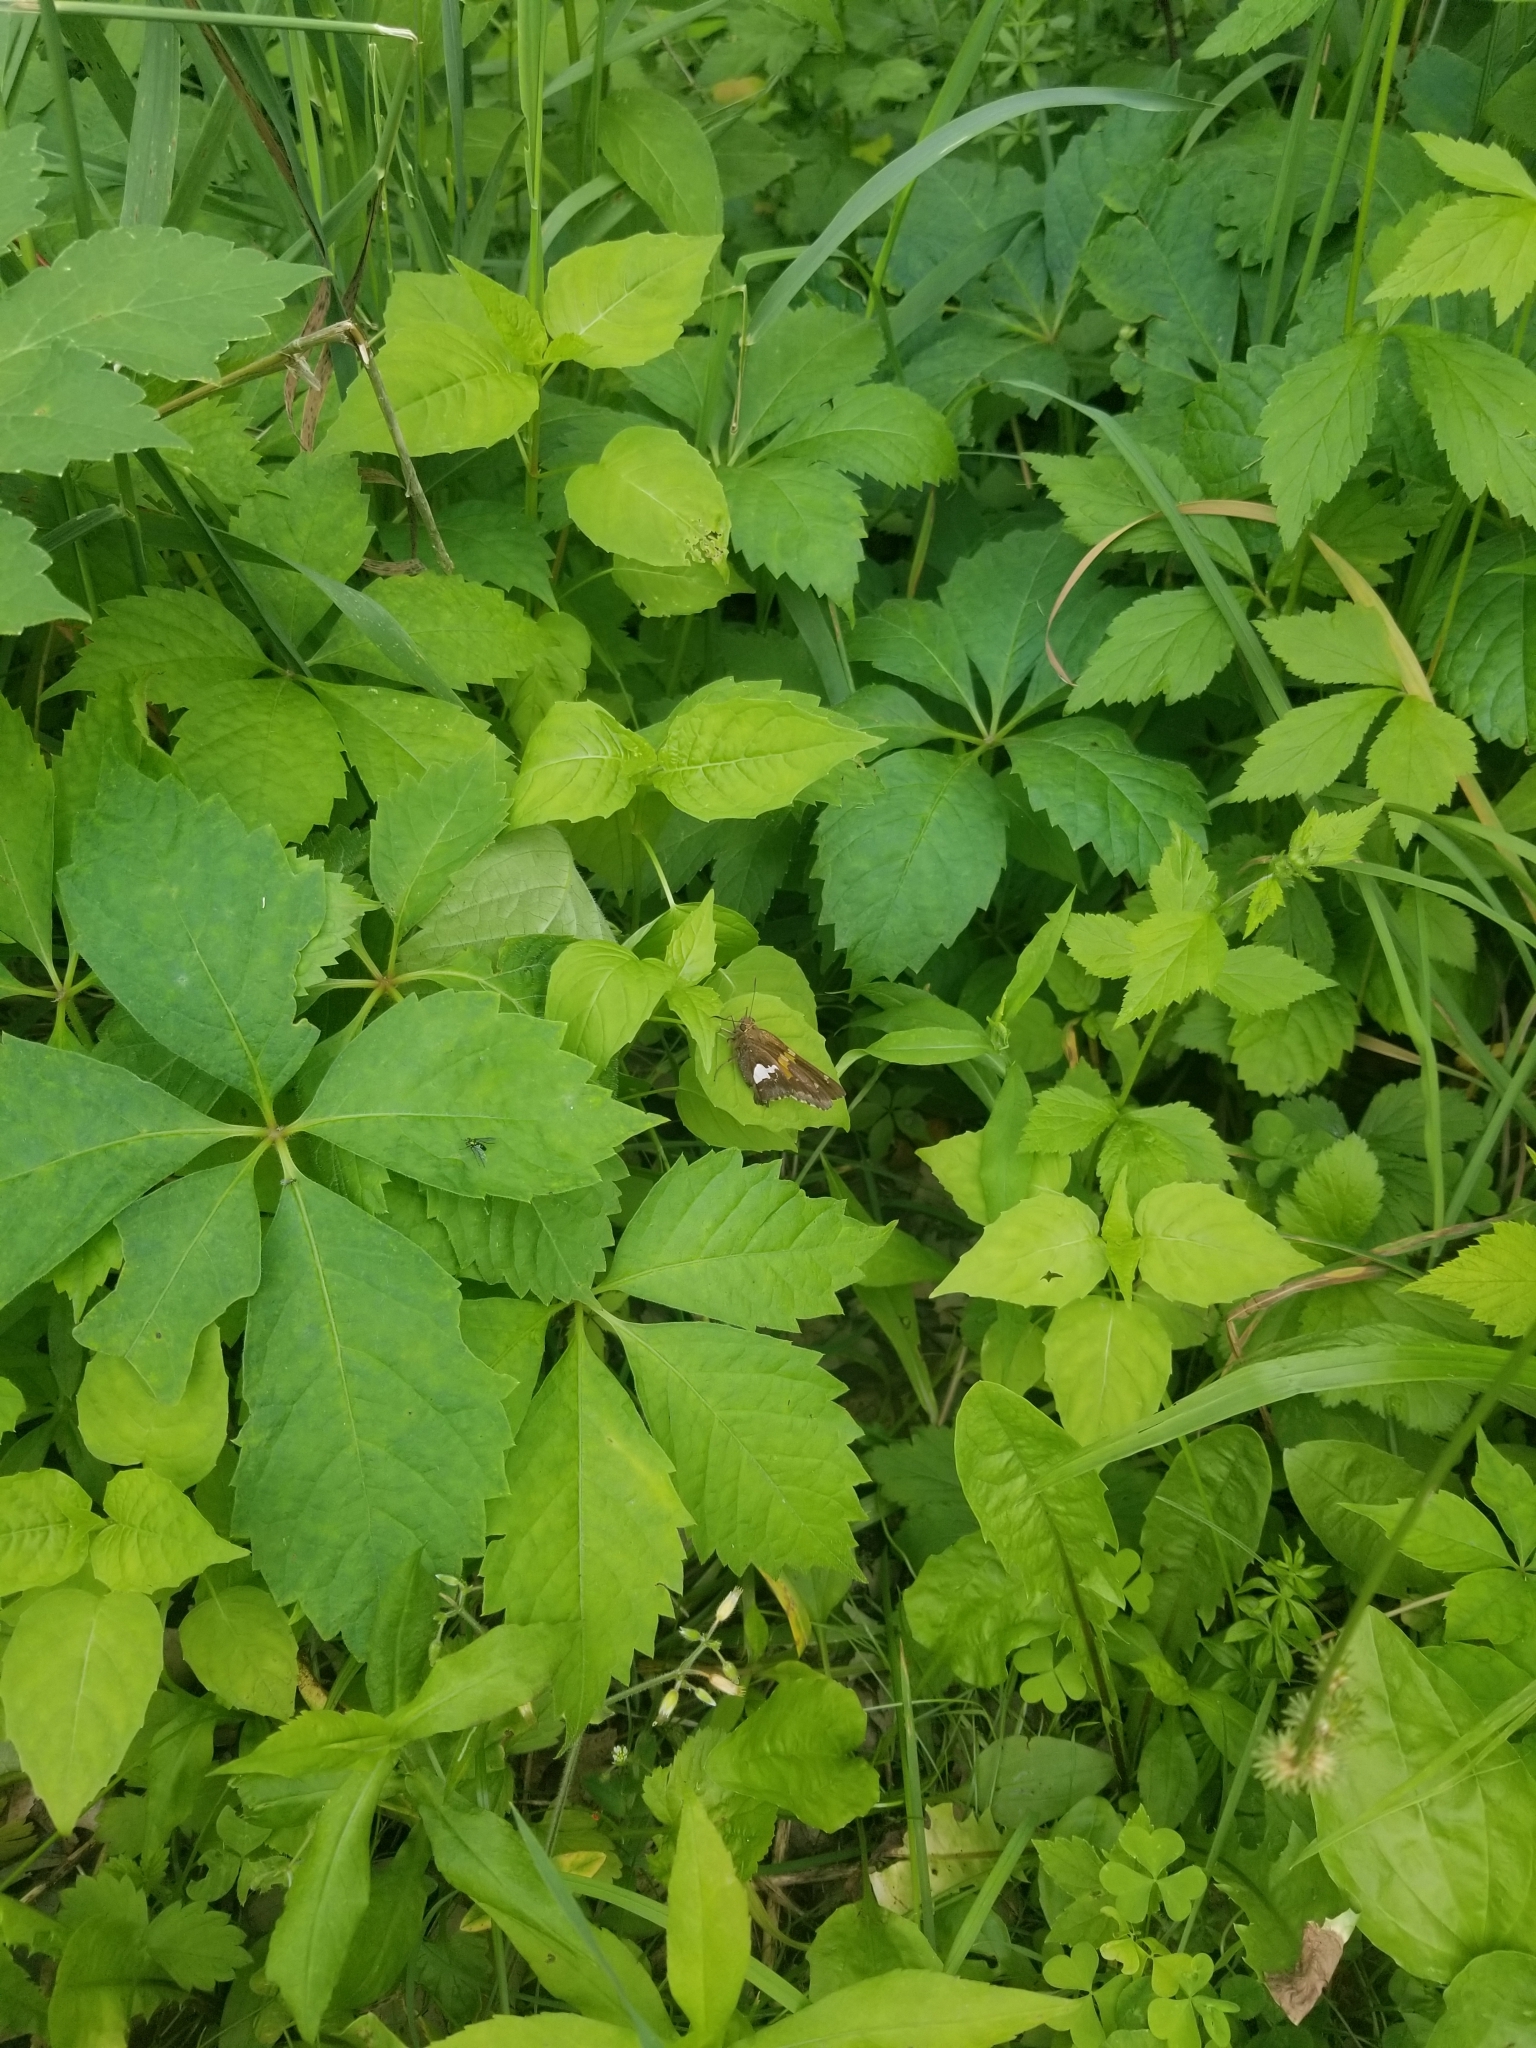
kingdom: Animalia
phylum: Arthropoda
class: Insecta
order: Lepidoptera
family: Hesperiidae
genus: Epargyreus
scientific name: Epargyreus clarus
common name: Silver-spotted skipper
